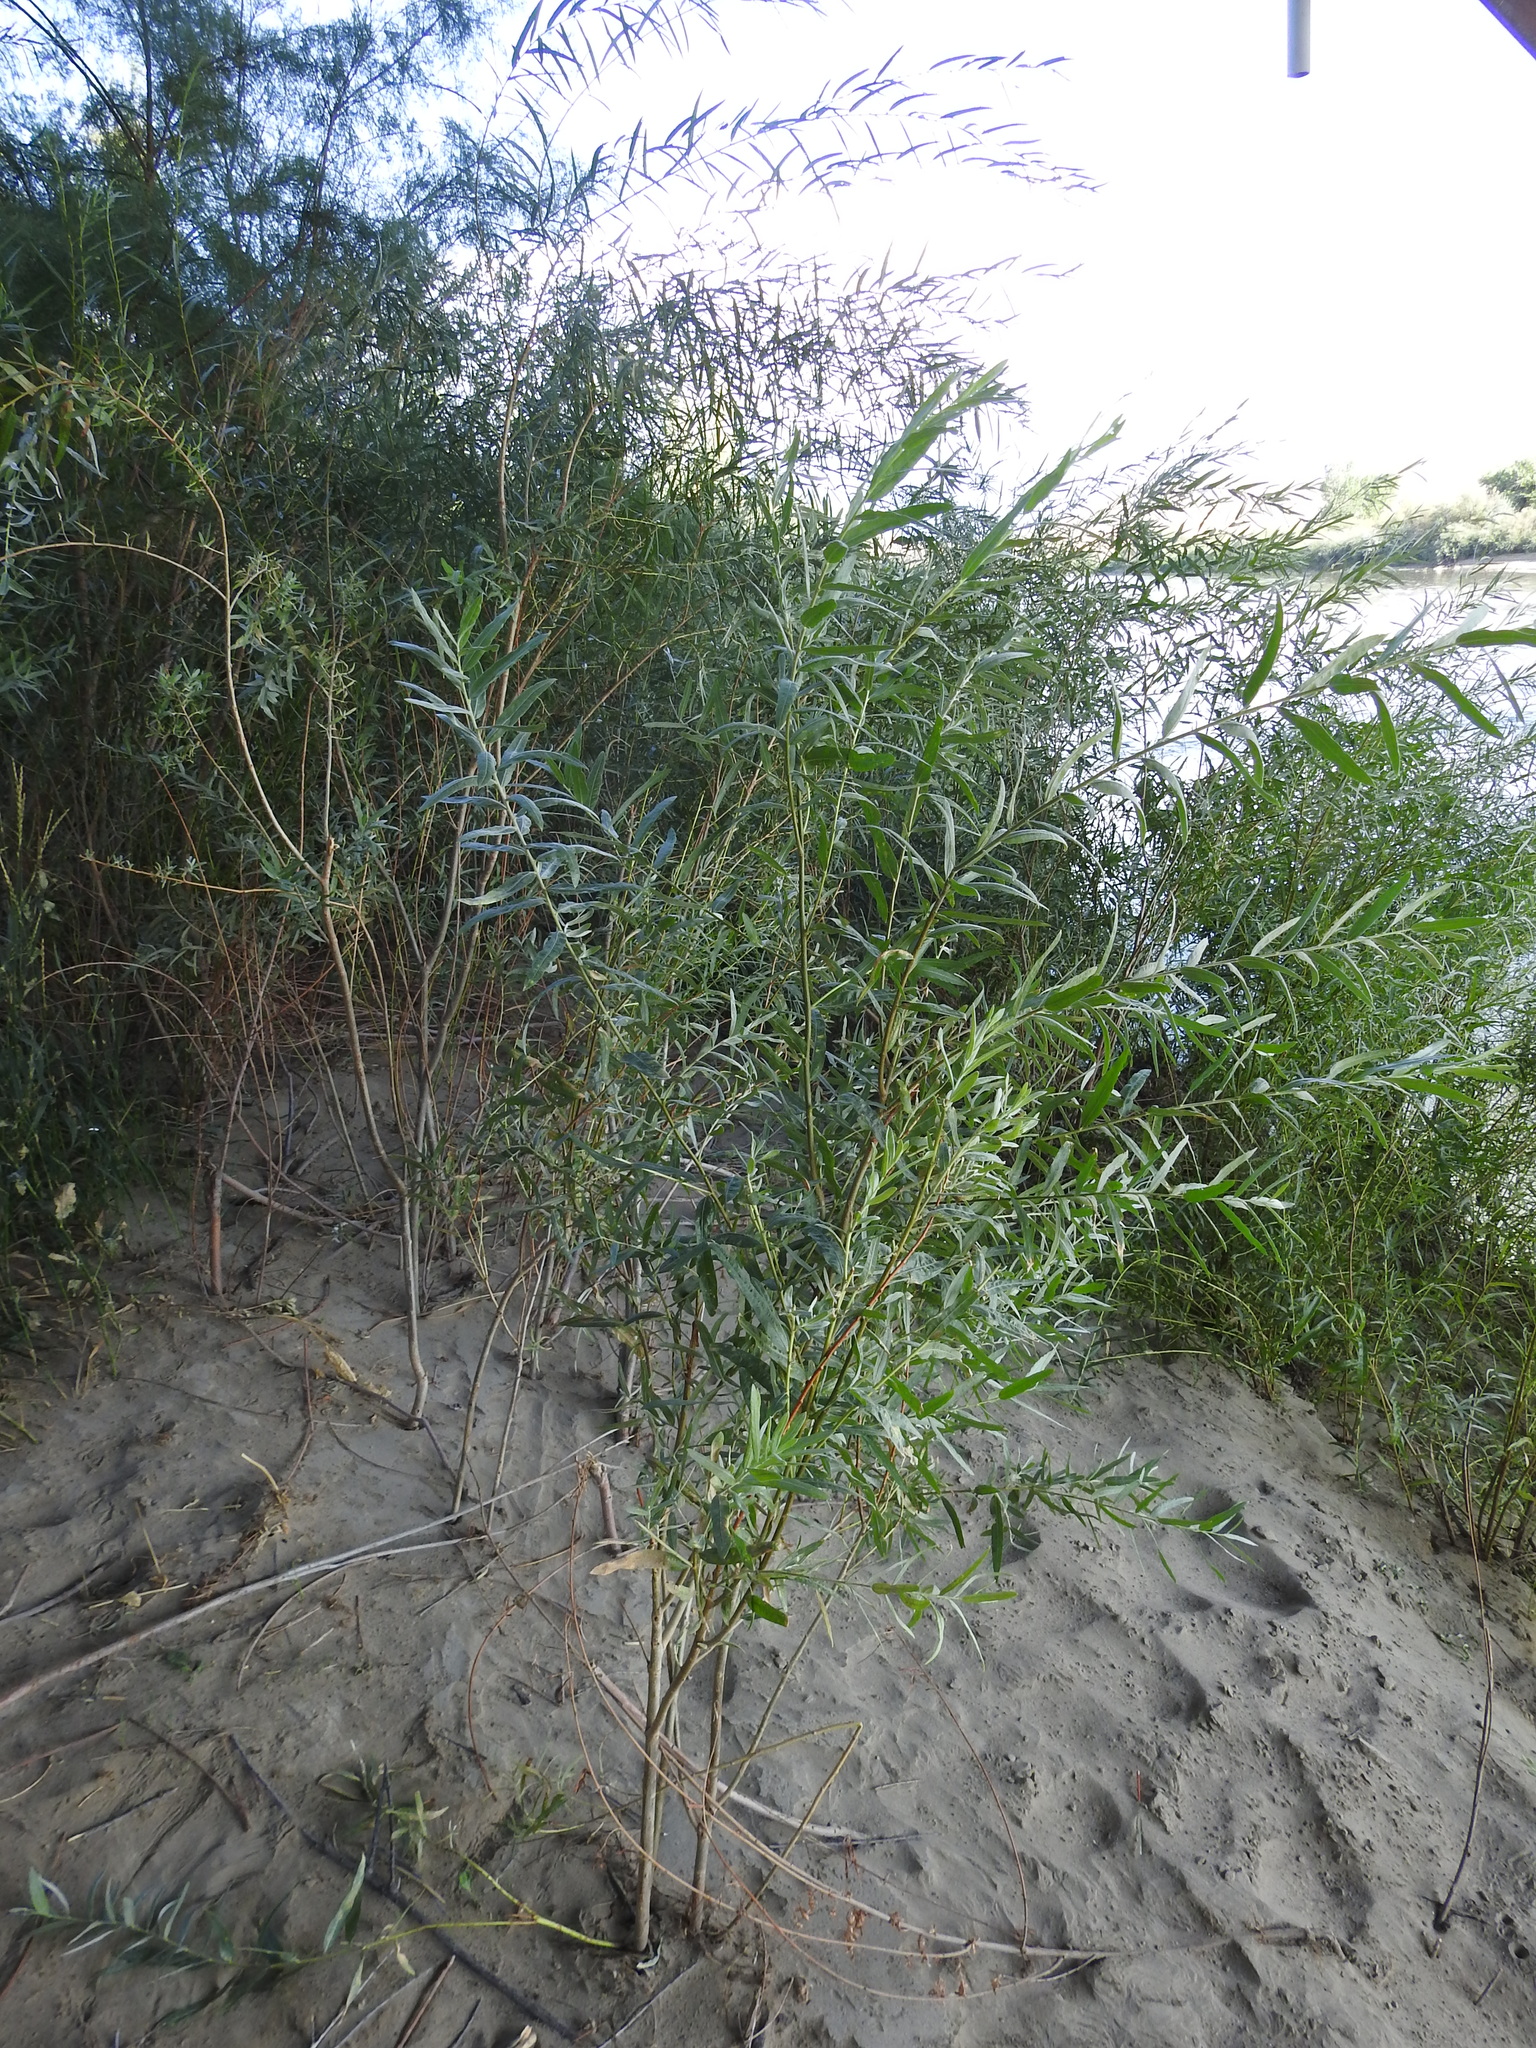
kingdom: Plantae
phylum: Tracheophyta
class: Magnoliopsida
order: Malpighiales
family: Salicaceae
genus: Salix
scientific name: Salix exigua
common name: Coyote willow
